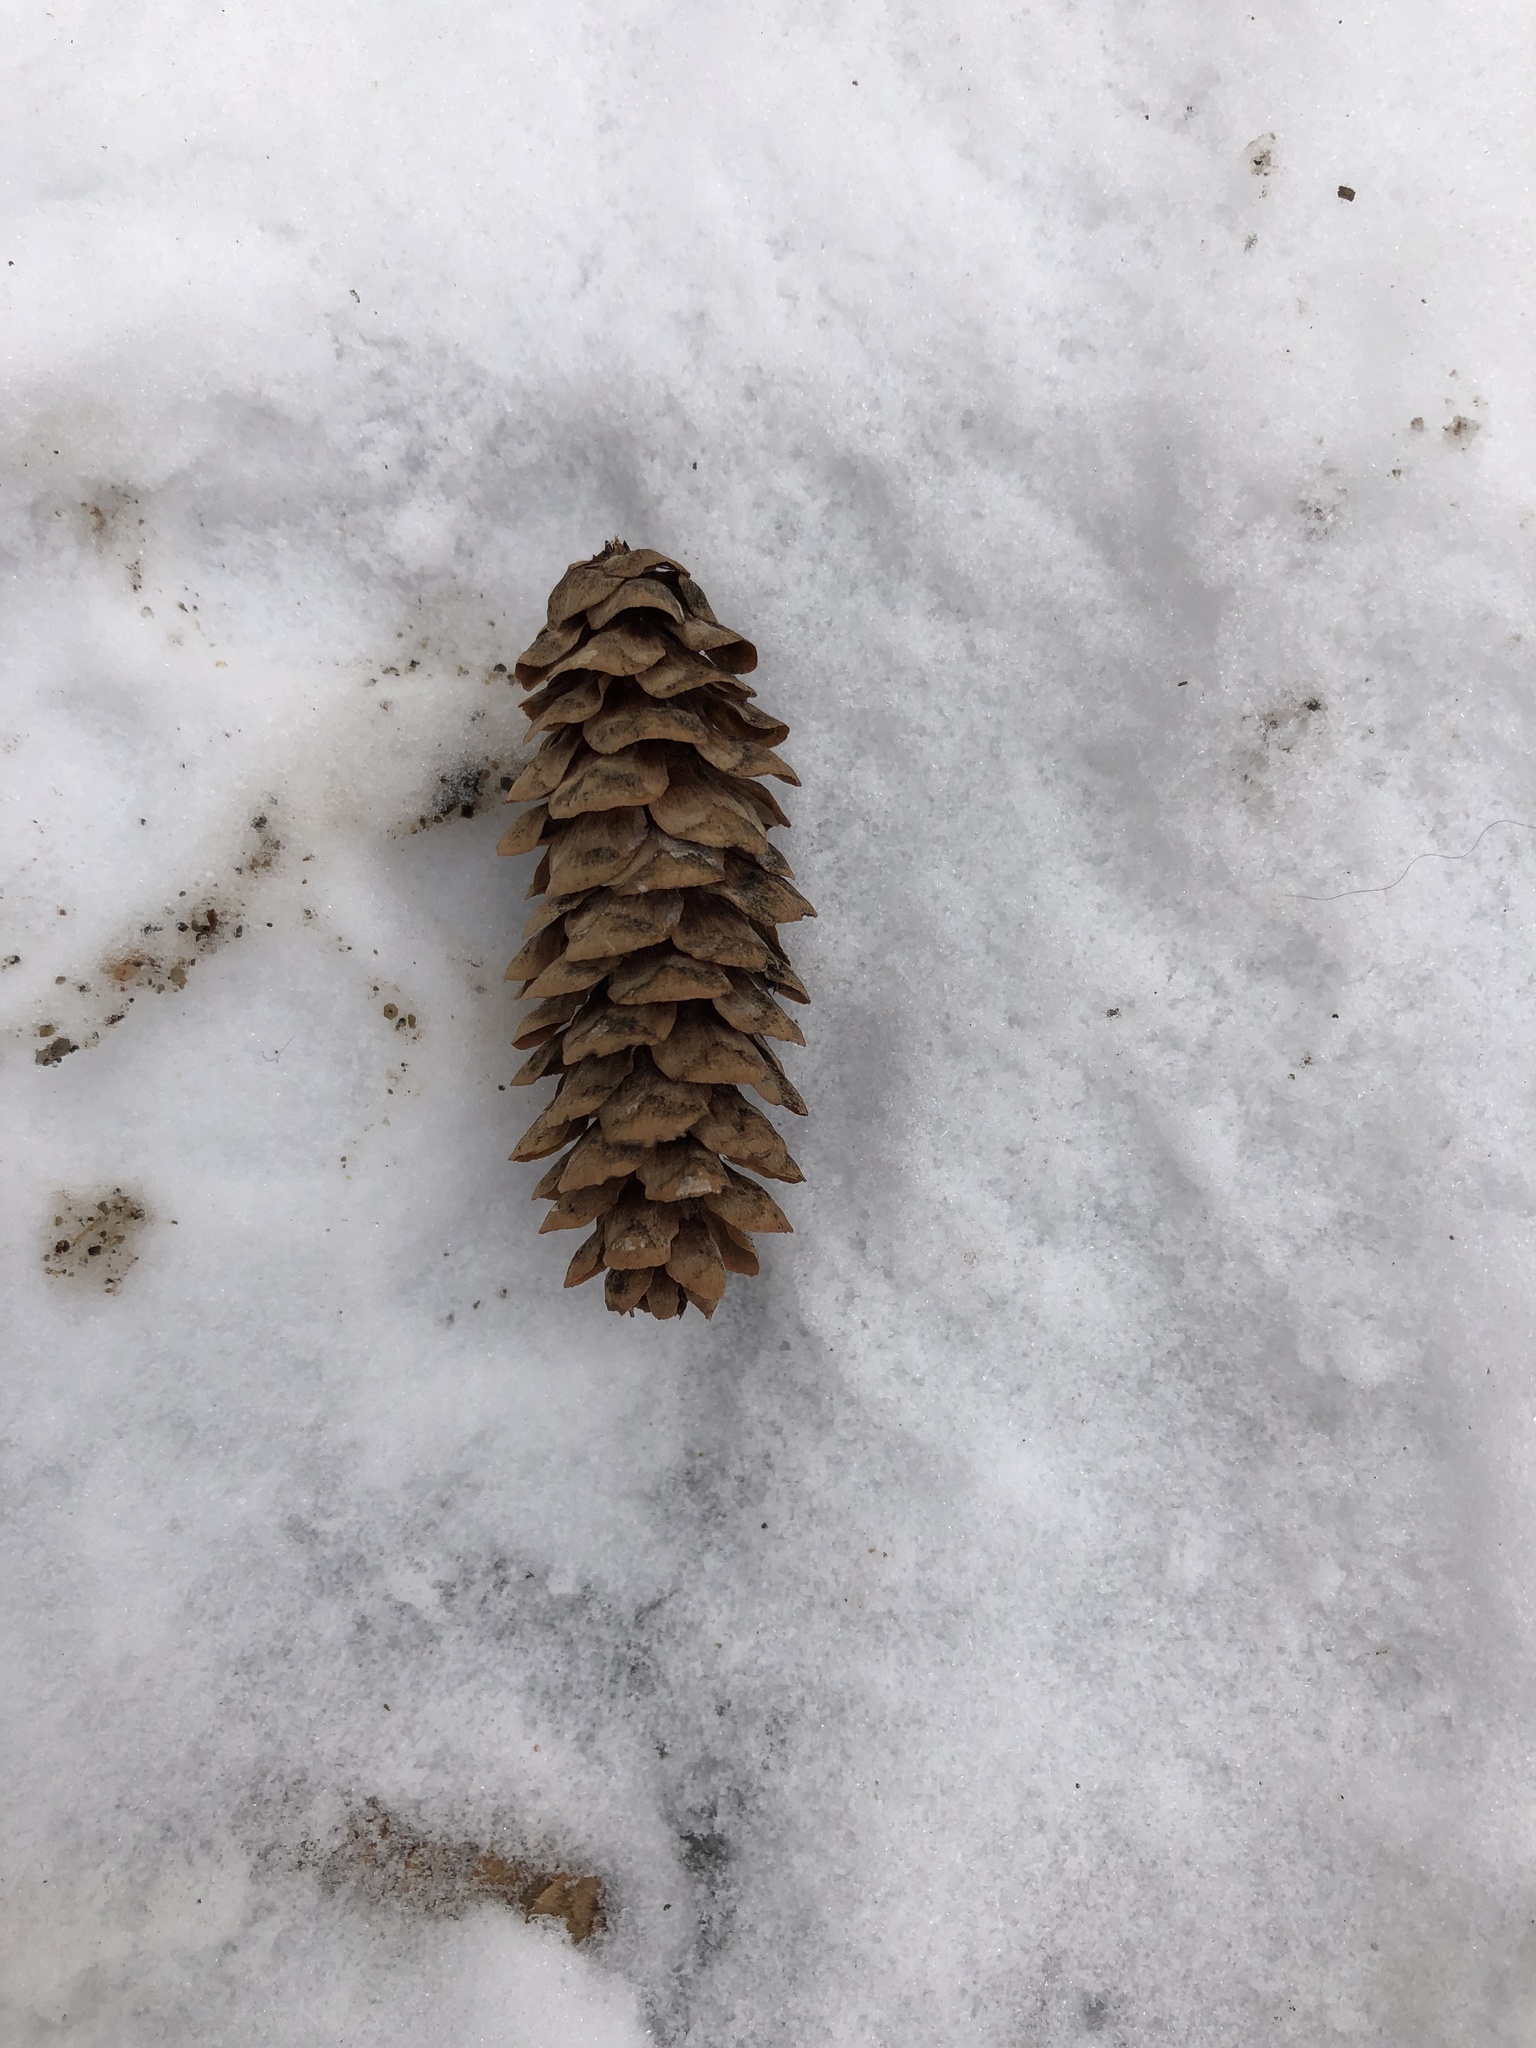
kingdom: Plantae
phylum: Tracheophyta
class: Pinopsida
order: Pinales
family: Pinaceae
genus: Picea
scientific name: Picea glauca
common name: White spruce
